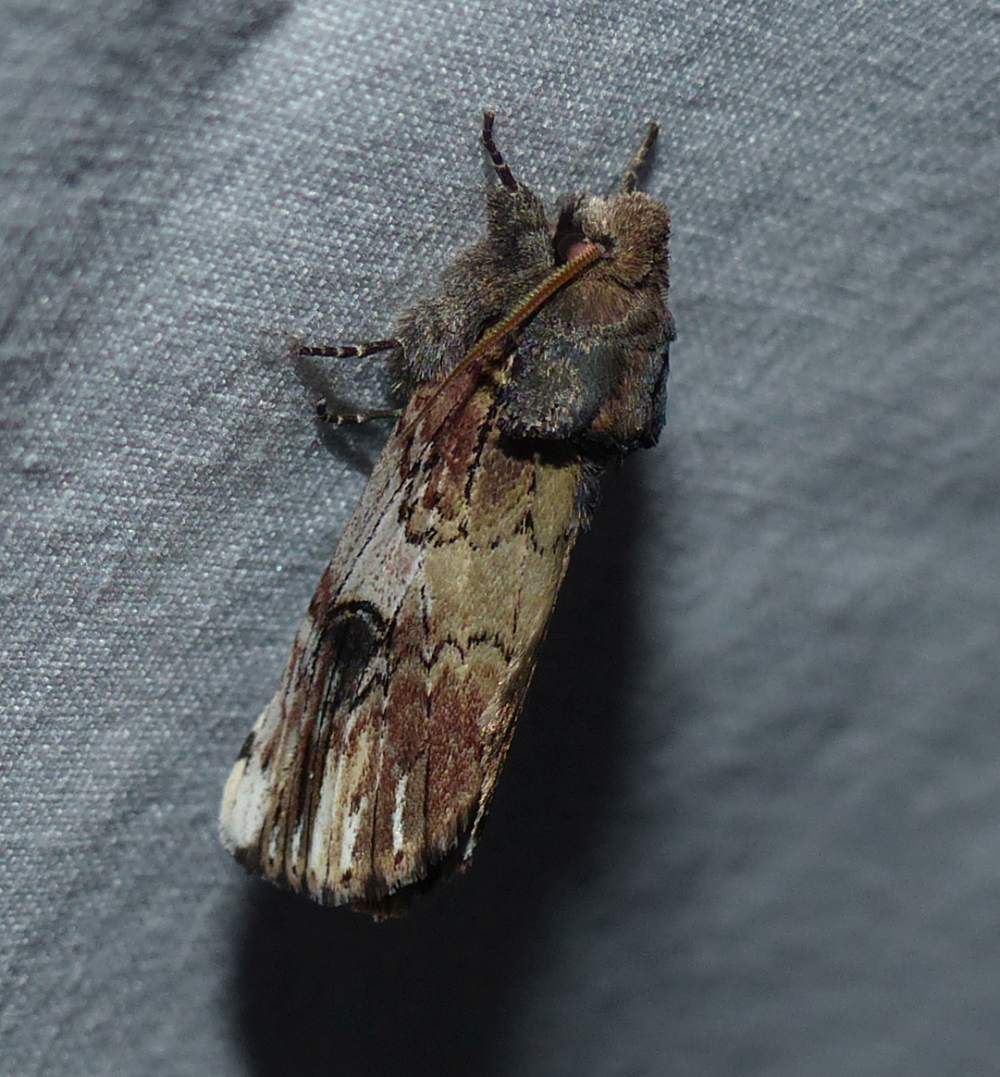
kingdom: Animalia
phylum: Arthropoda
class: Insecta
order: Lepidoptera
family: Notodontidae
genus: Schizura
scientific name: Schizura badia
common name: Chestnut schizura
